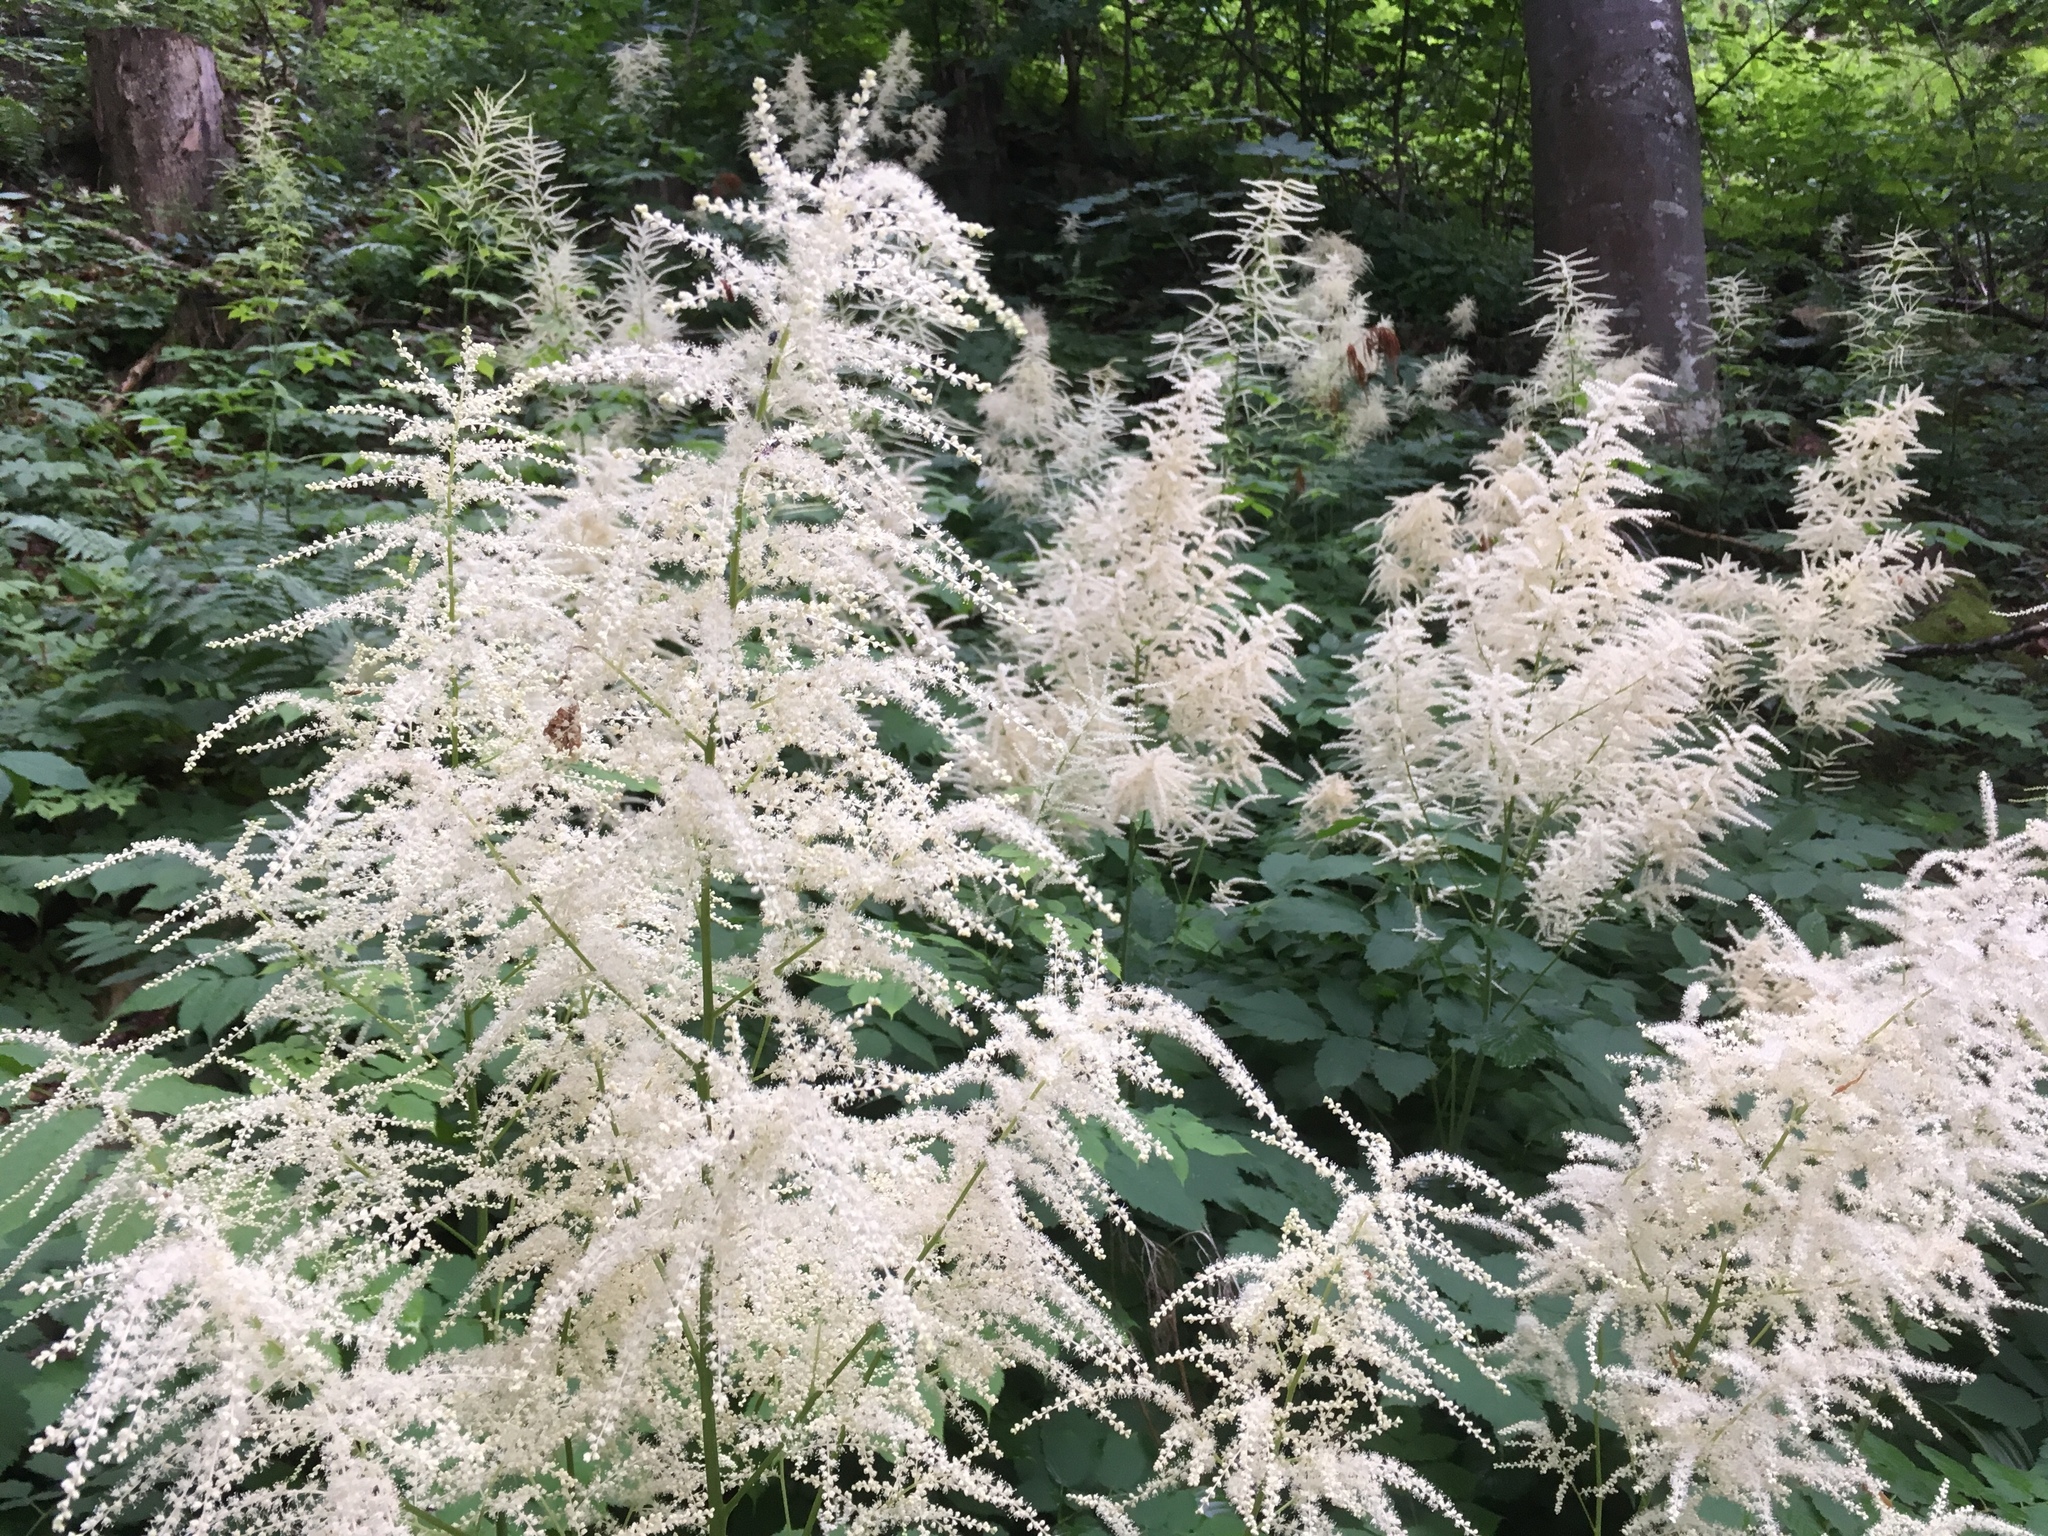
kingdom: Plantae
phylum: Tracheophyta
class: Magnoliopsida
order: Rosales
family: Rosaceae
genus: Aruncus
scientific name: Aruncus dioicus
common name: Buck's-beard
